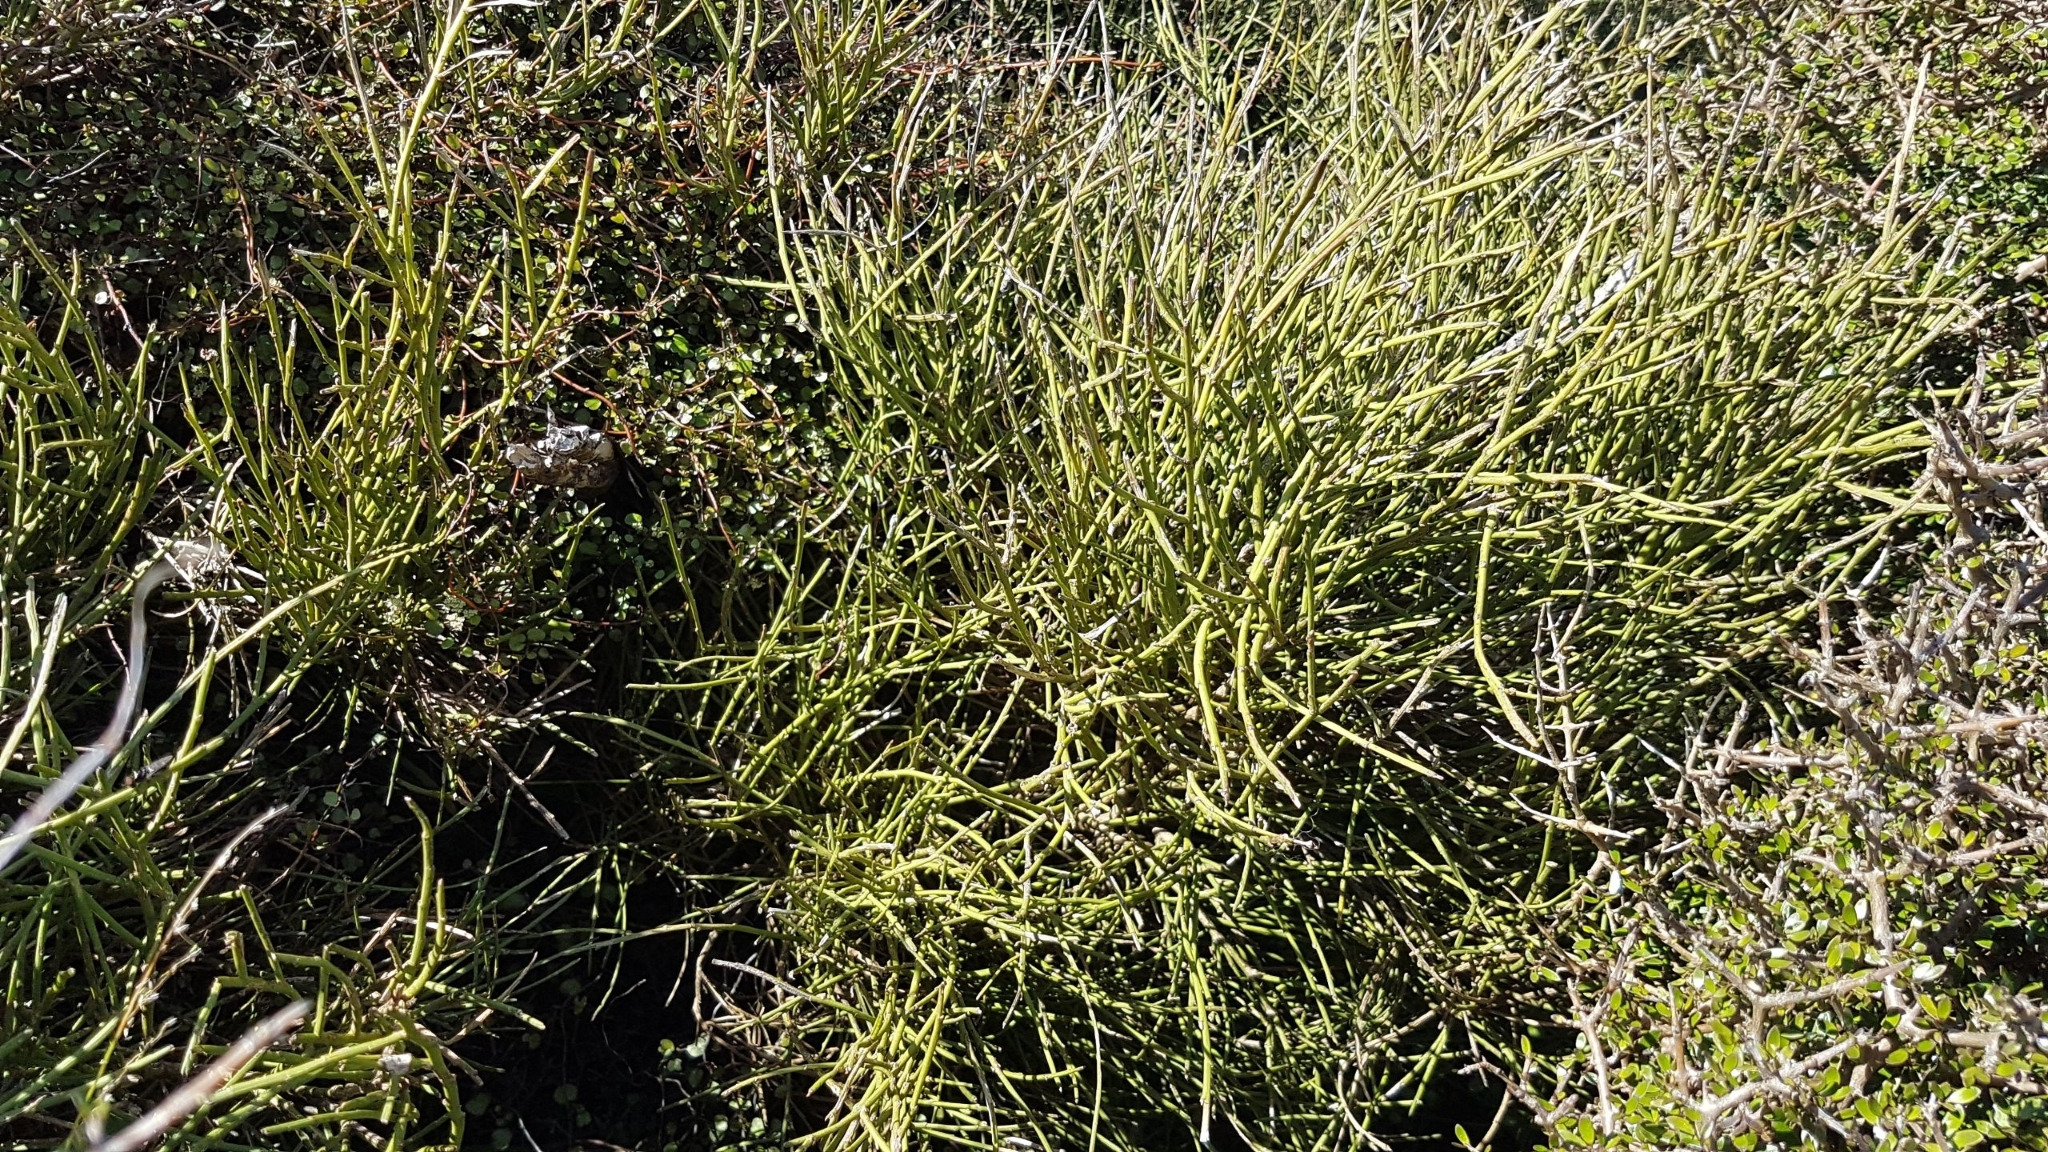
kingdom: Plantae
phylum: Tracheophyta
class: Magnoliopsida
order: Fabales
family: Fabaceae
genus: Carmichaelia
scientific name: Carmichaelia australis
